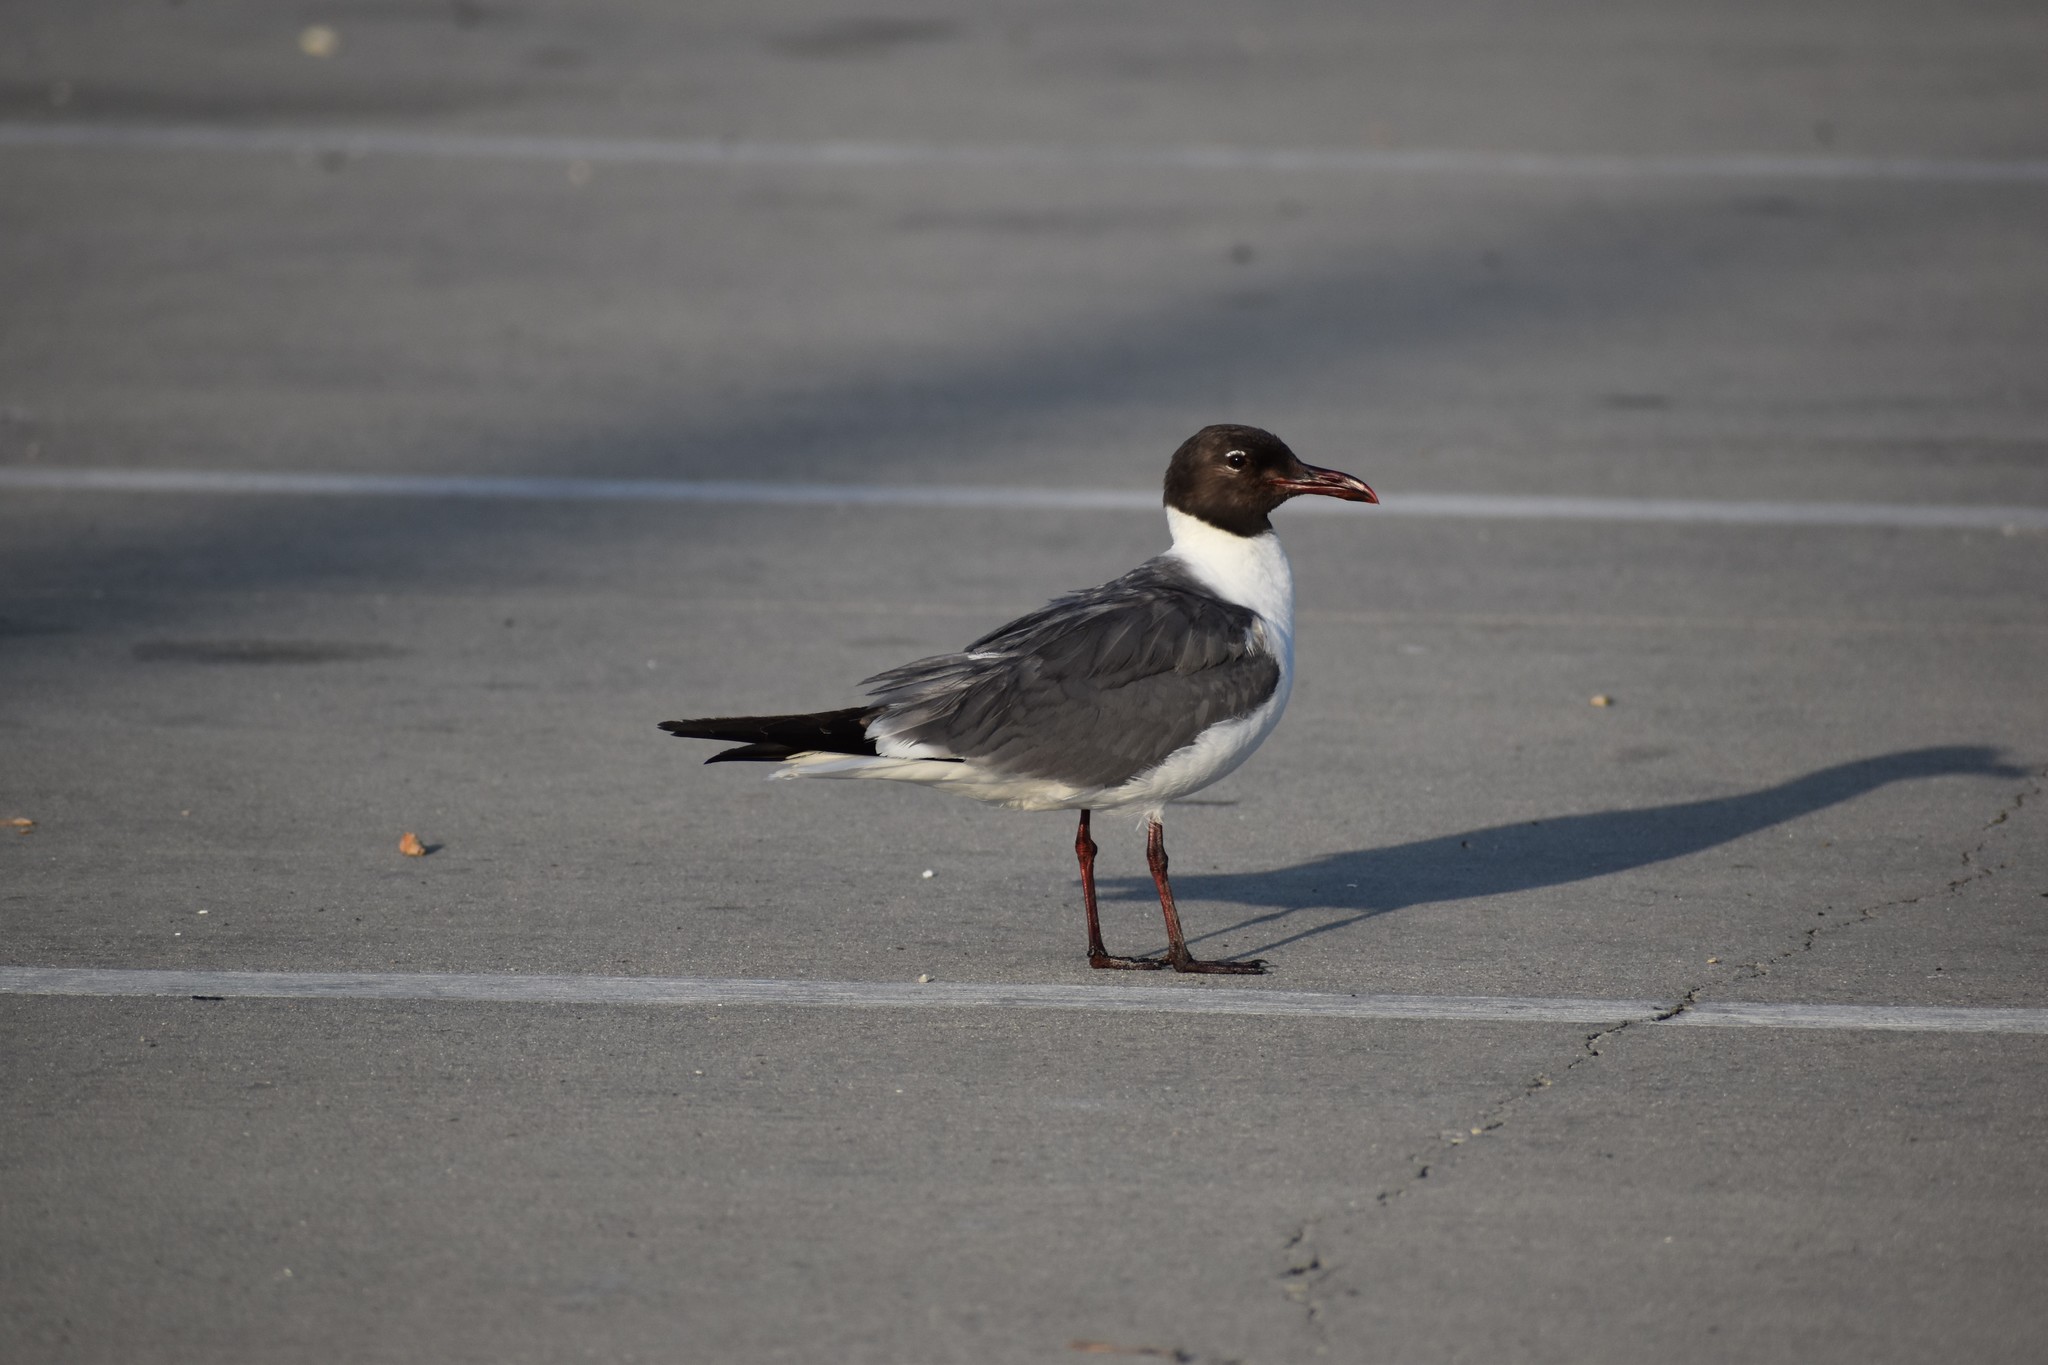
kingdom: Animalia
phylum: Chordata
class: Aves
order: Charadriiformes
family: Laridae
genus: Leucophaeus
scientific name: Leucophaeus atricilla
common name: Laughing gull
